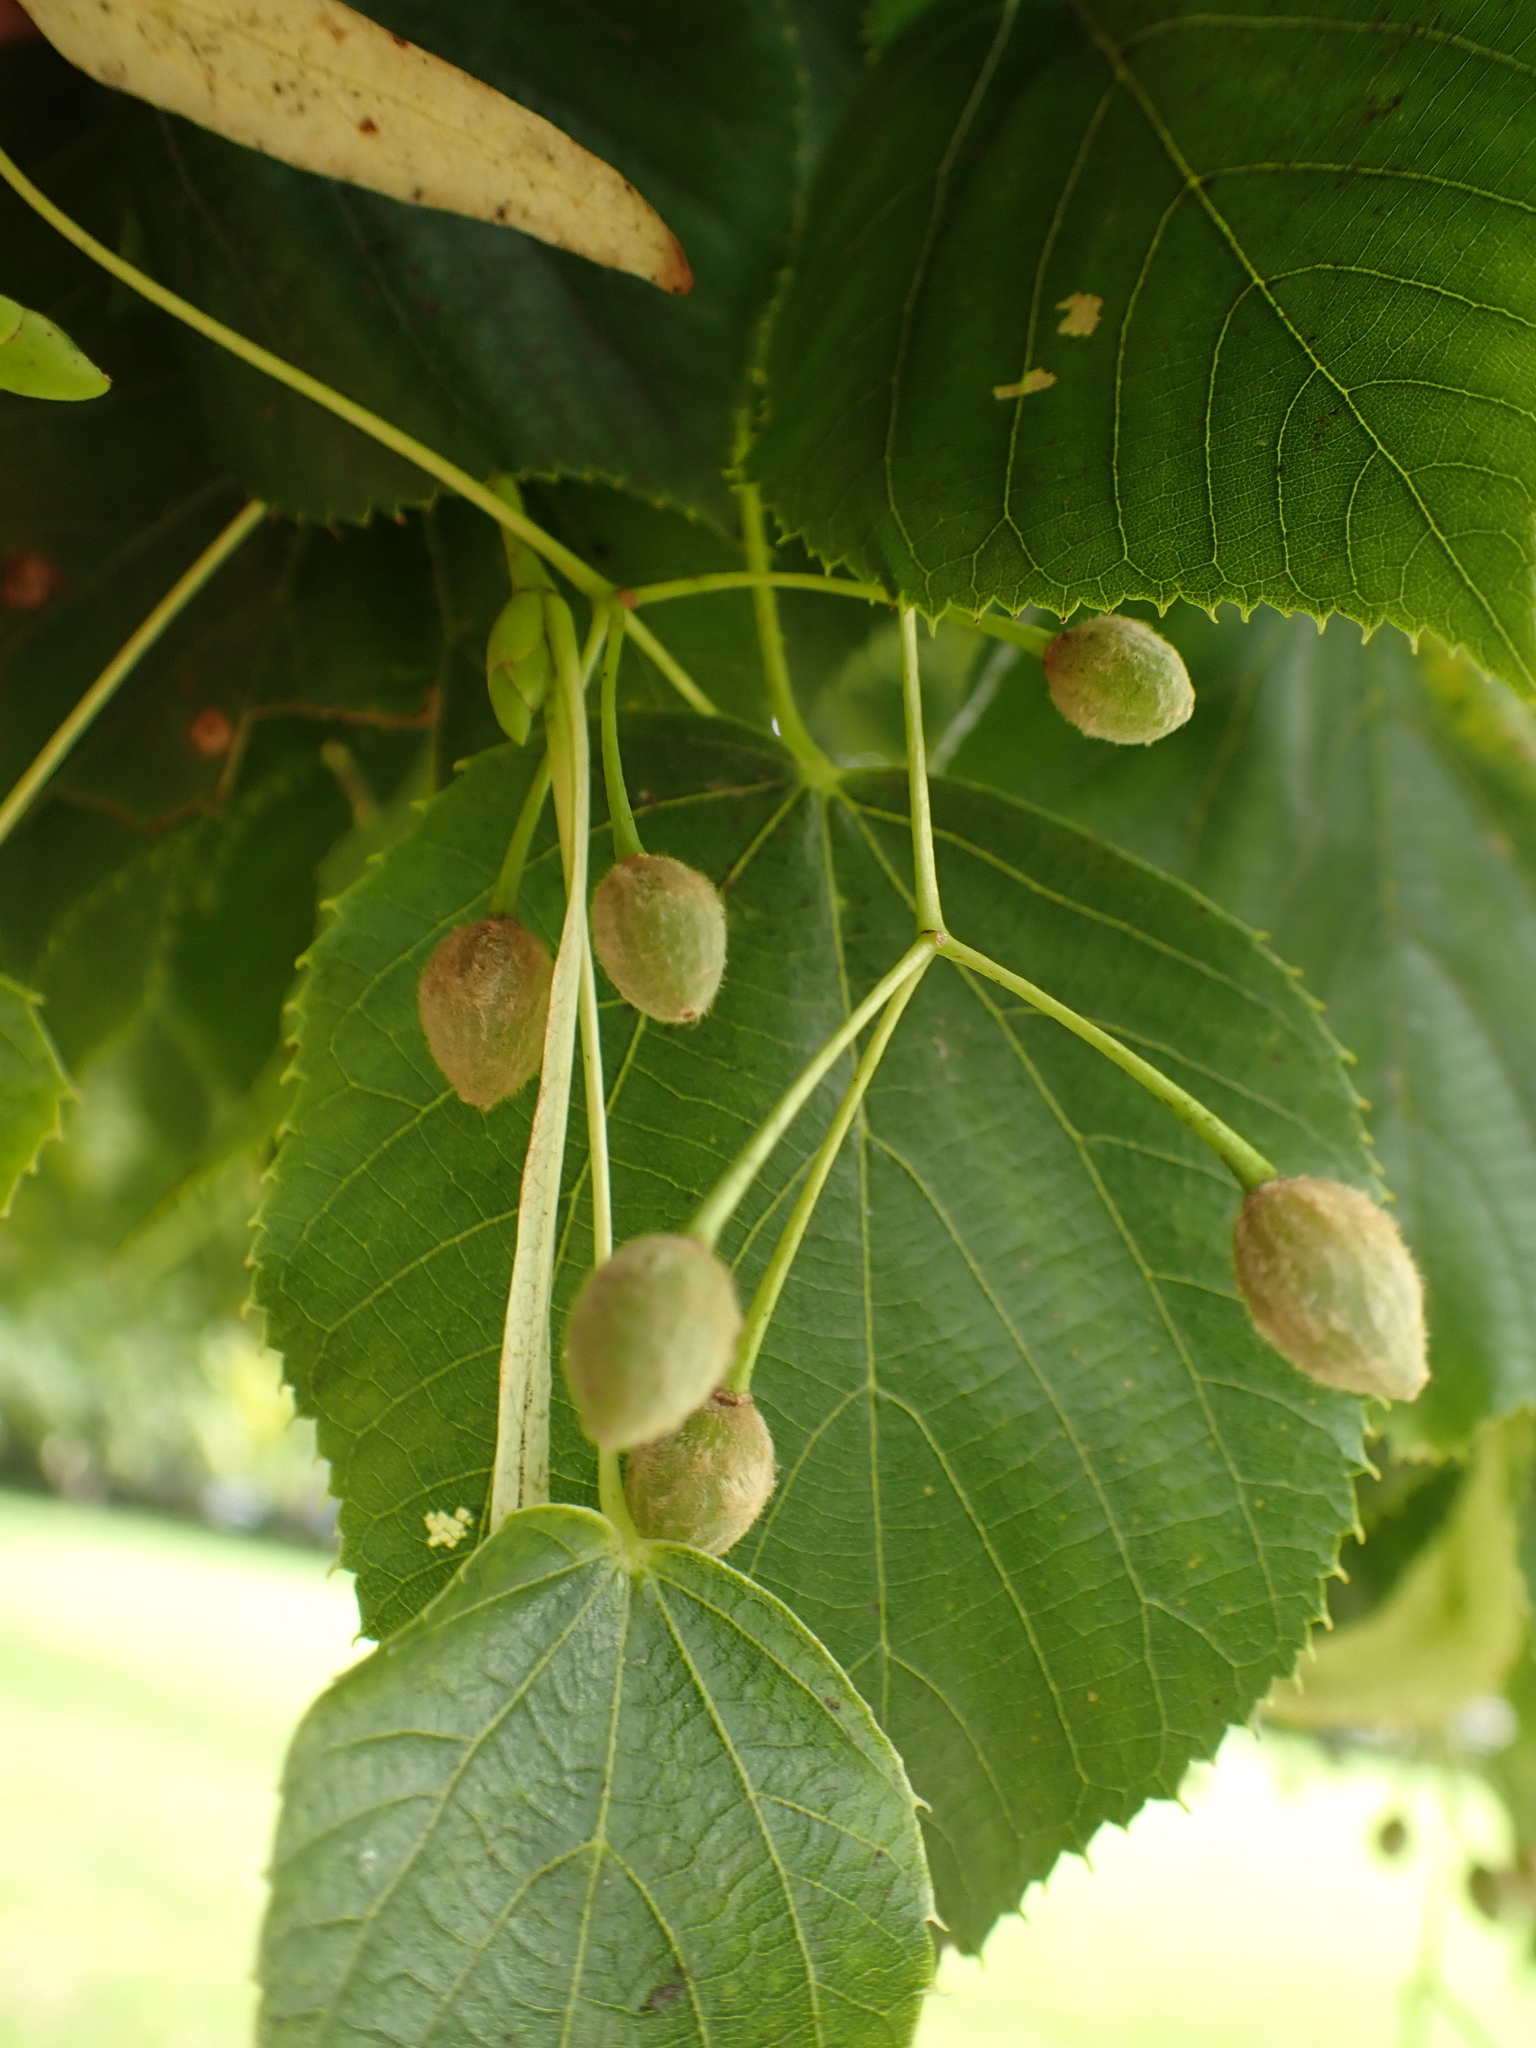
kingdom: Plantae
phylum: Tracheophyta
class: Magnoliopsida
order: Malvales
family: Malvaceae
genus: Tilia
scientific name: Tilia europaea
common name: European linden
